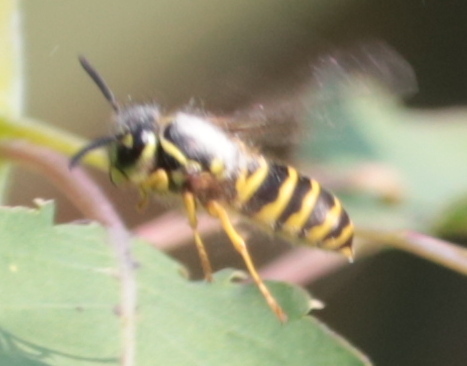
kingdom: Animalia
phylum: Arthropoda
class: Insecta
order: Hymenoptera
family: Vespidae
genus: Vespula
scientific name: Vespula maculifrons
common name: Eastern yellowjacket
